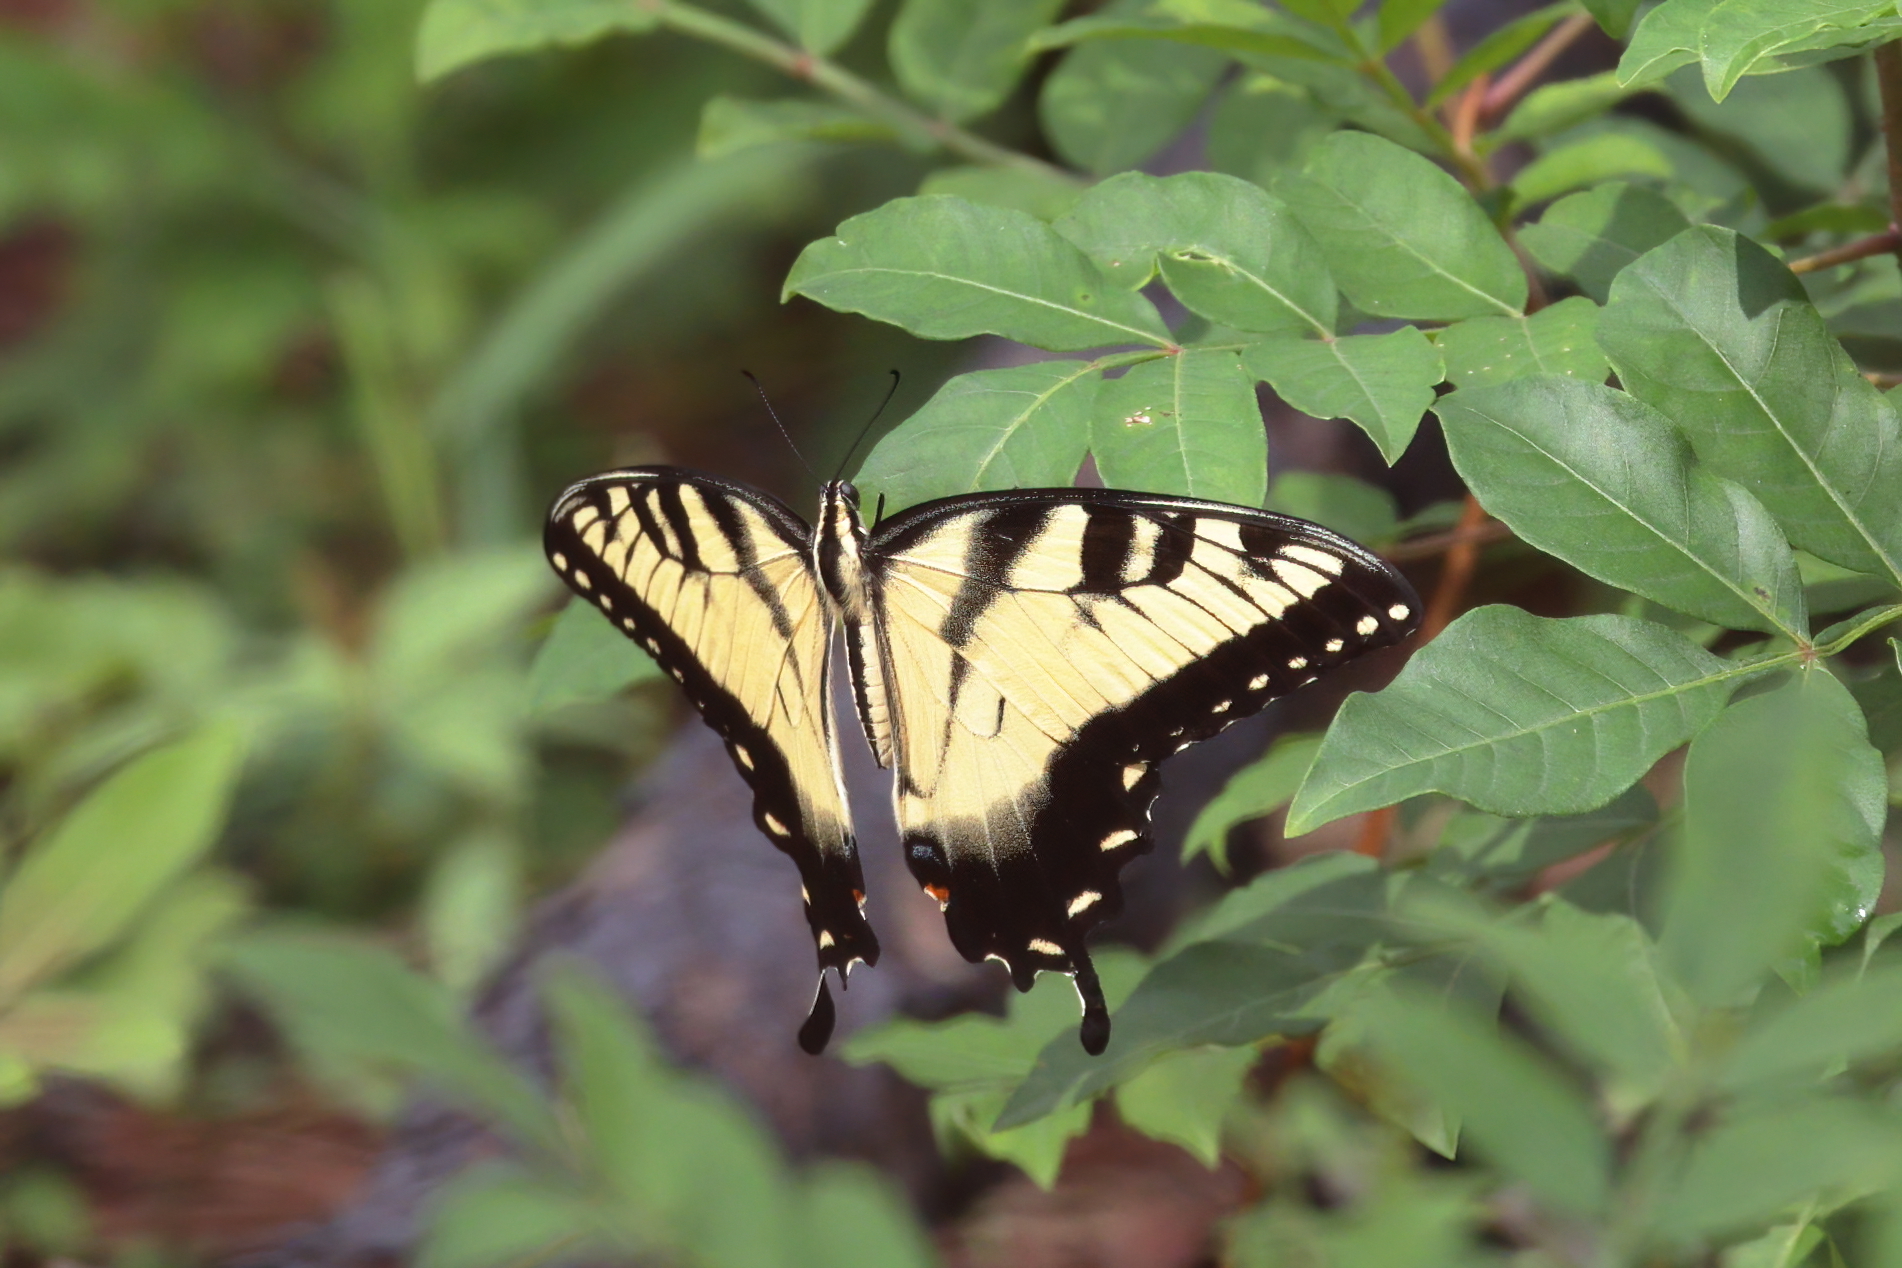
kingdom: Animalia
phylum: Arthropoda
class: Insecta
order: Lepidoptera
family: Papilionidae
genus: Papilio
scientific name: Papilio glaucus
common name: Tiger swallowtail
